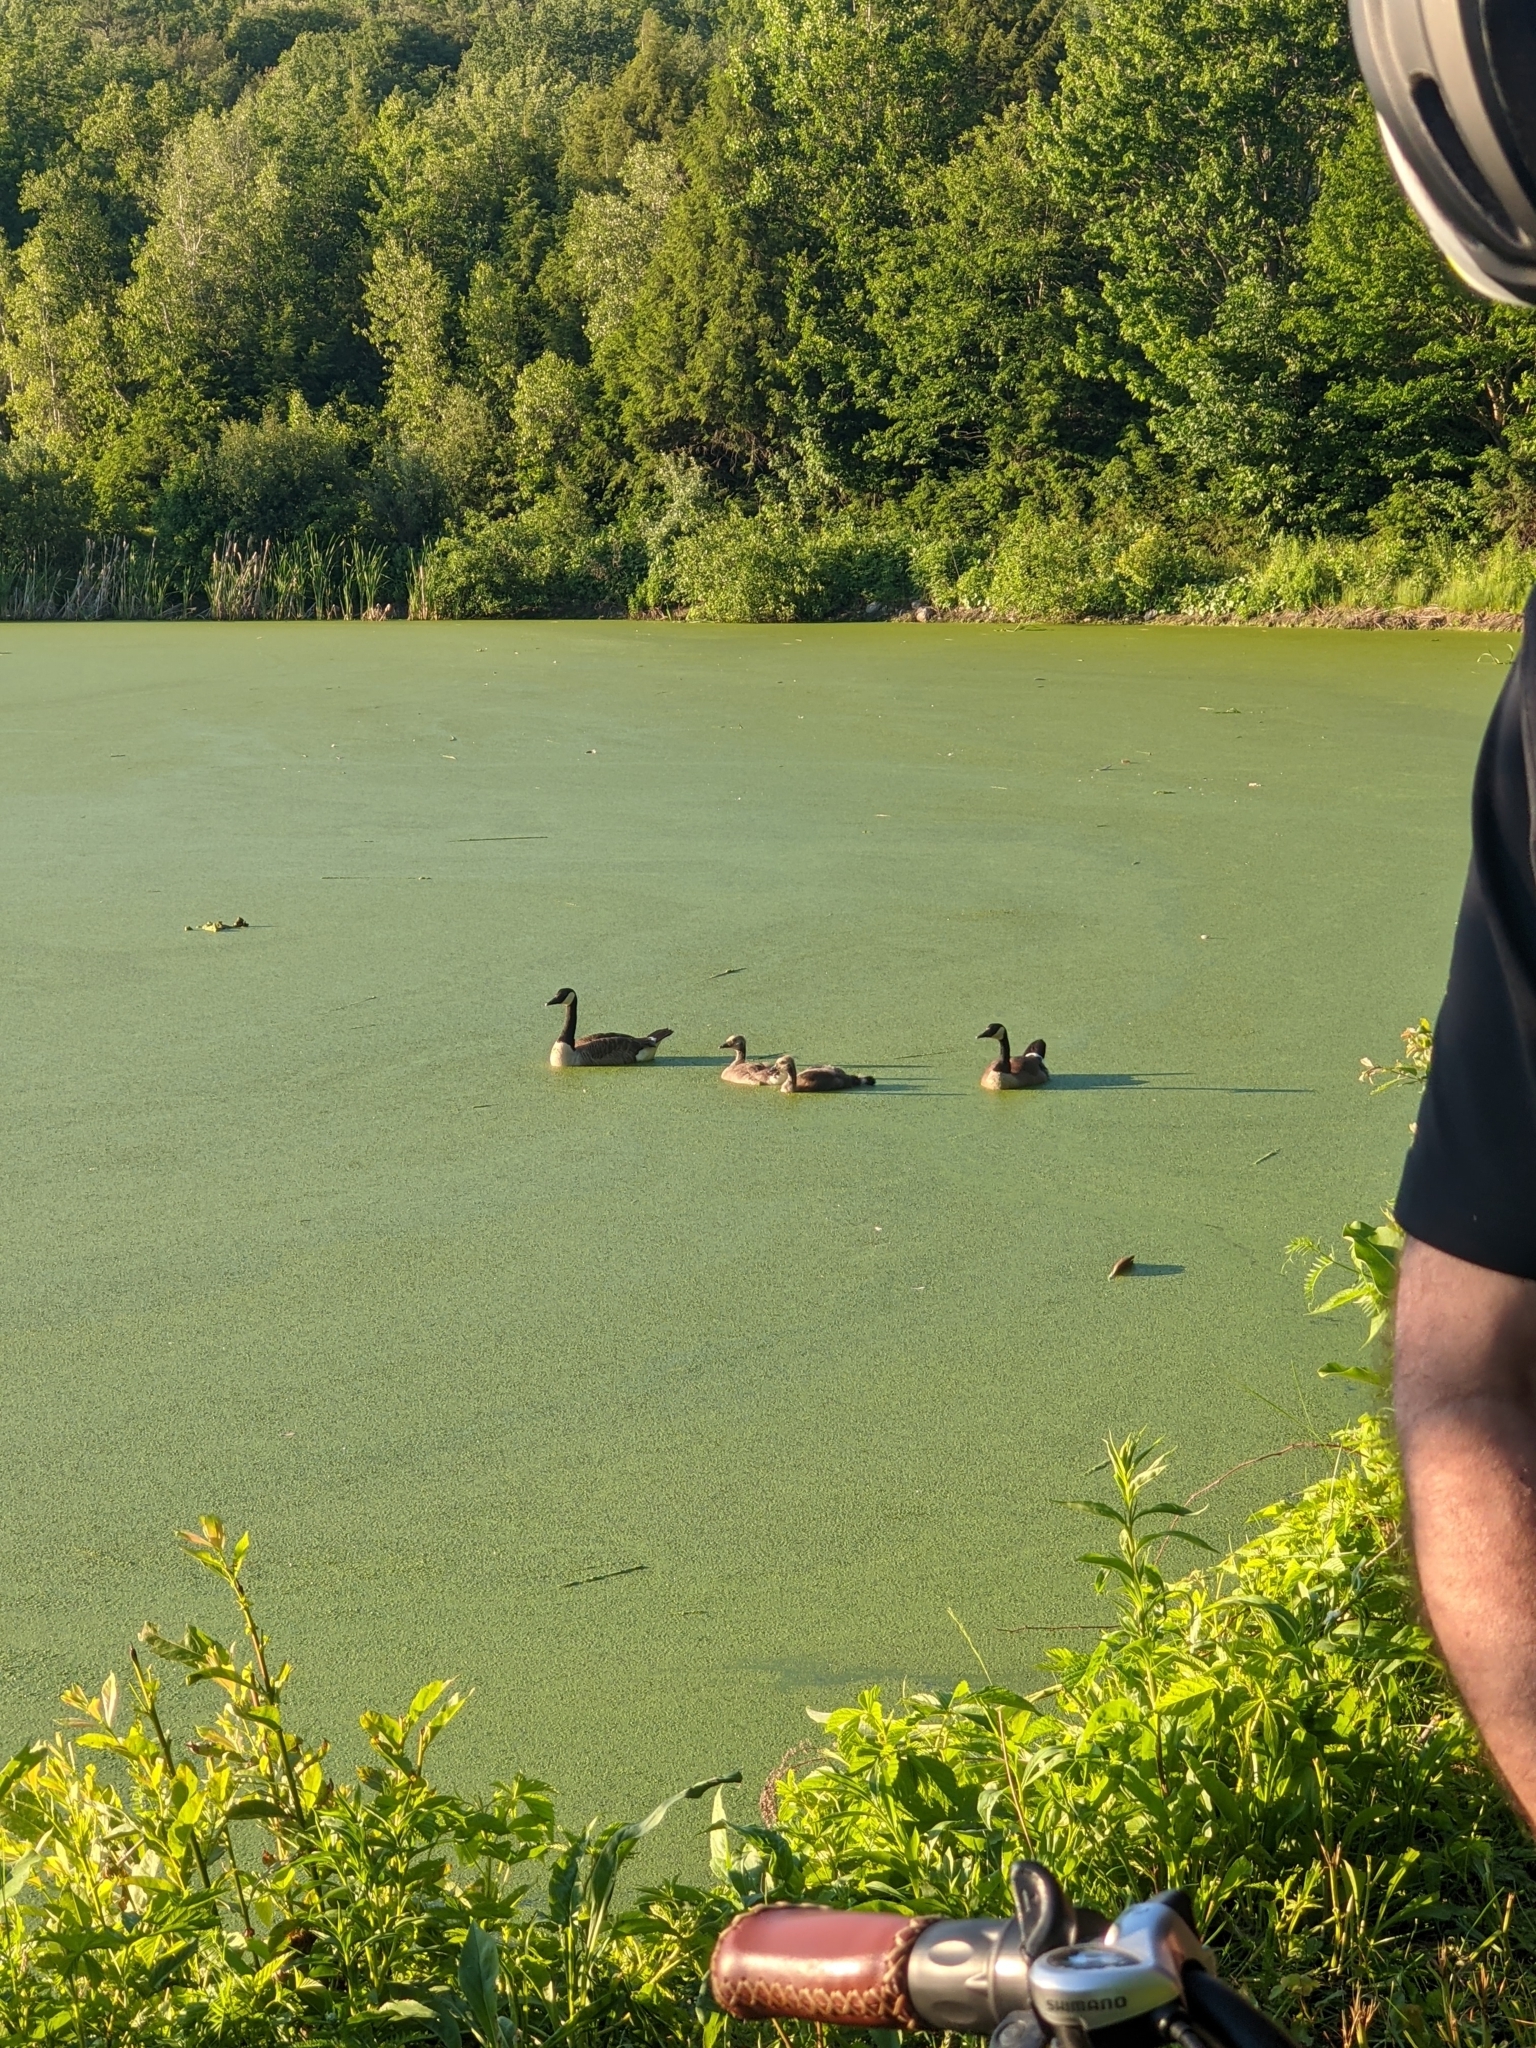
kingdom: Animalia
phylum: Chordata
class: Aves
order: Anseriformes
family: Anatidae
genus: Branta
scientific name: Branta canadensis
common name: Canada goose
